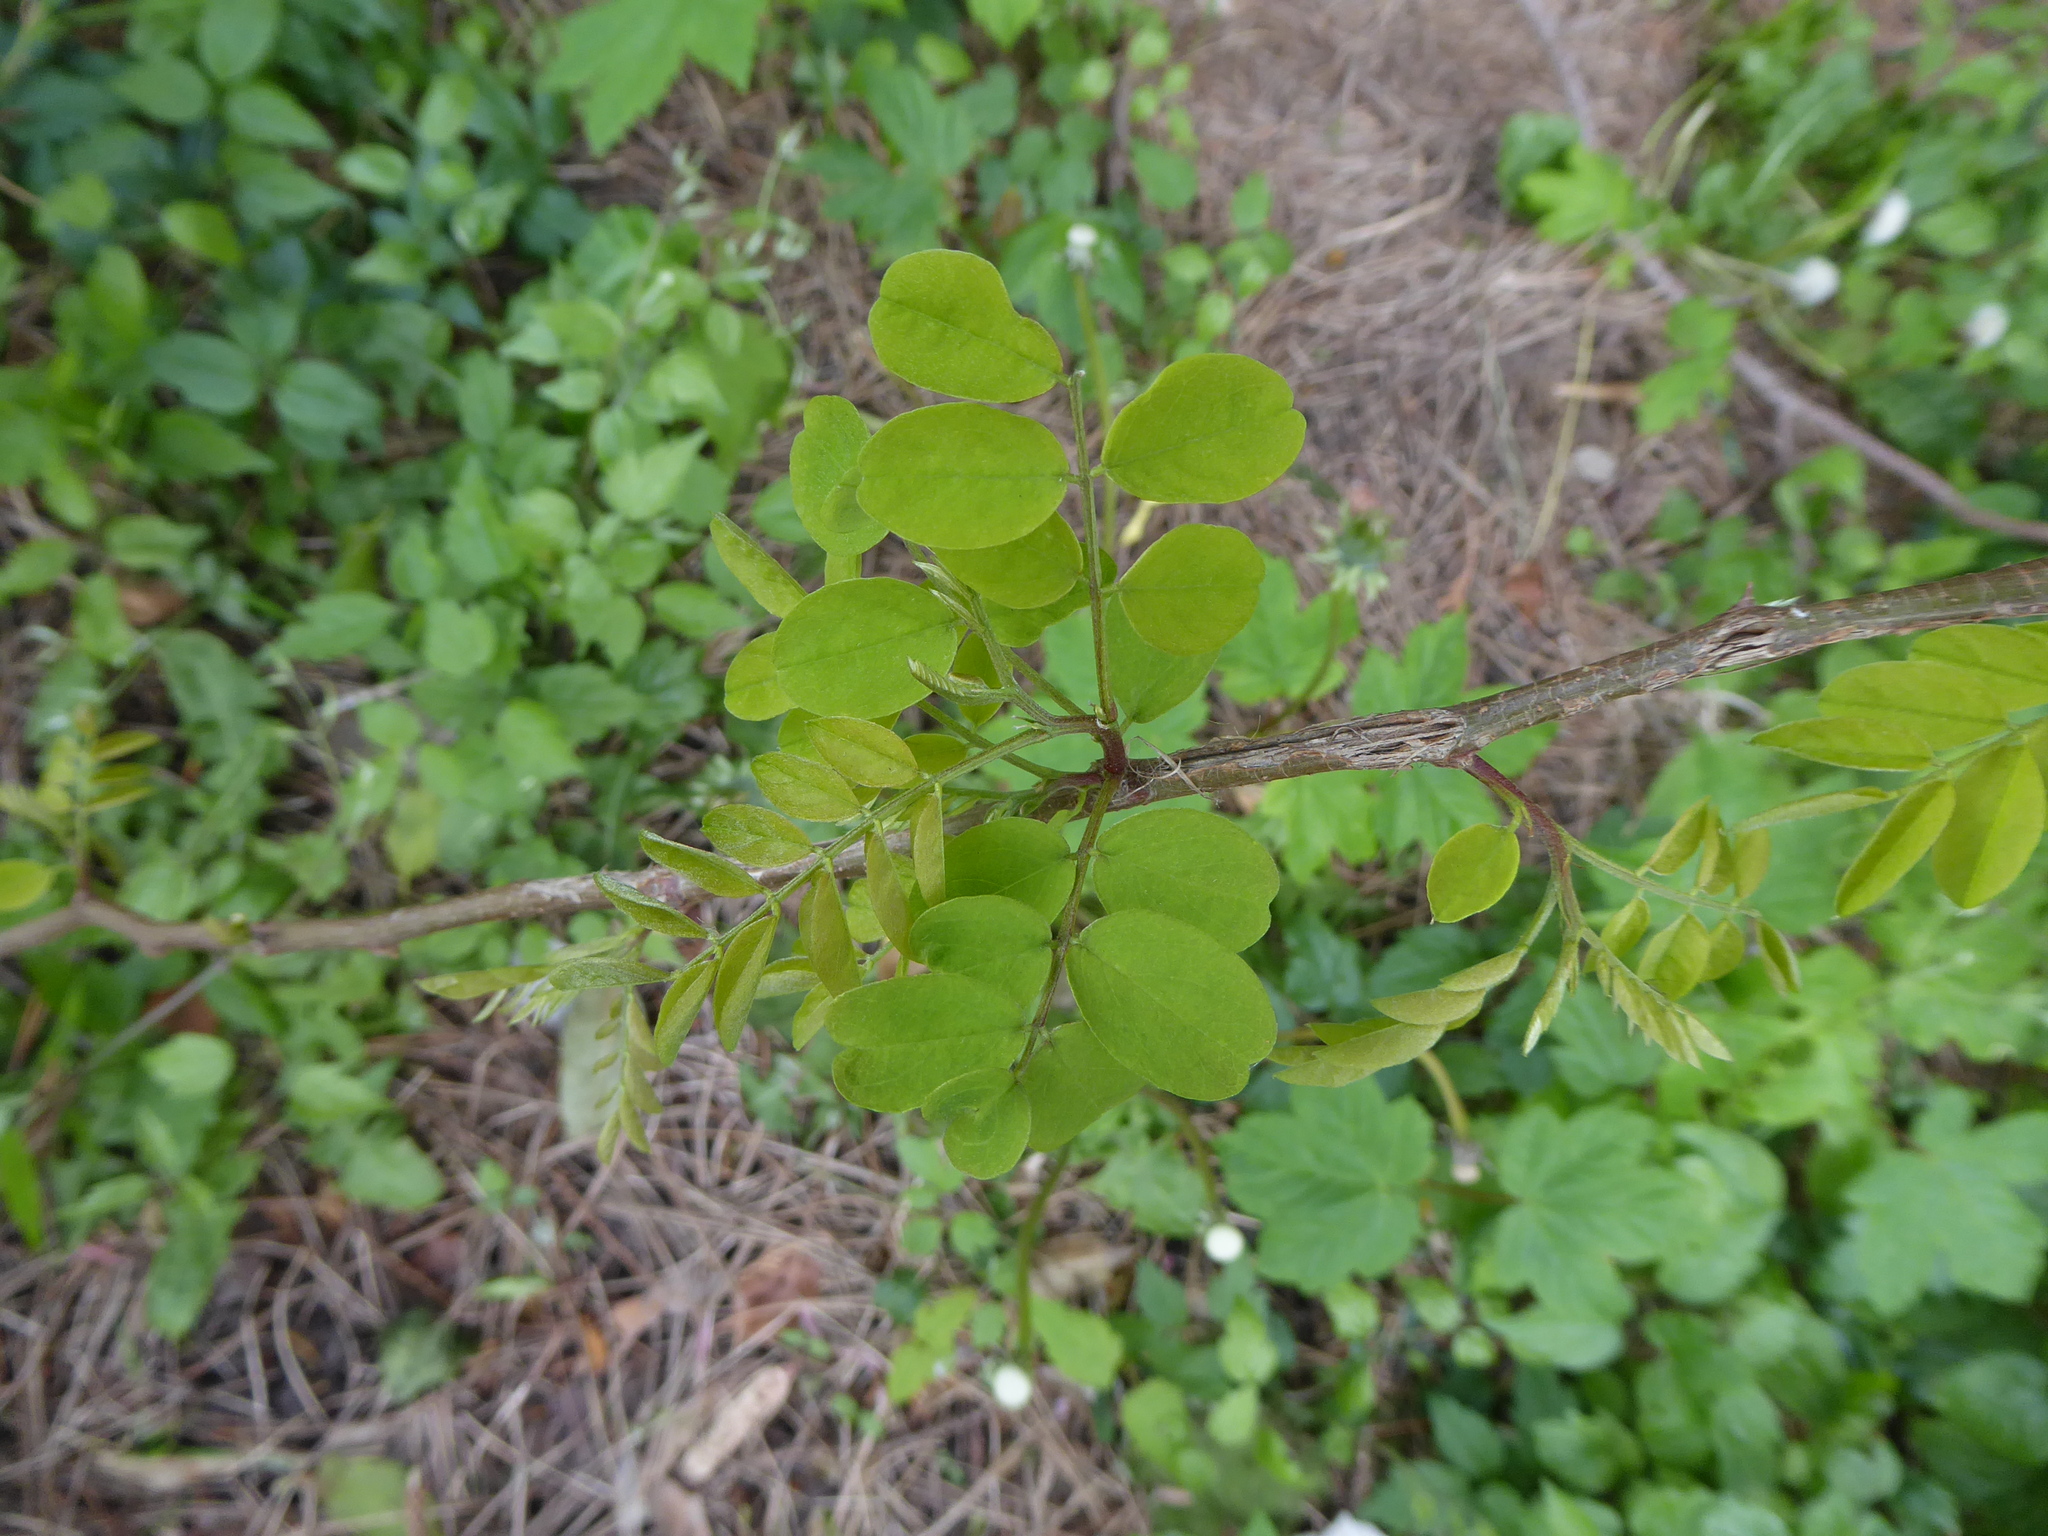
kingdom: Plantae
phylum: Tracheophyta
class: Magnoliopsida
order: Fabales
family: Fabaceae
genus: Robinia
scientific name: Robinia pseudoacacia
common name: Black locust
